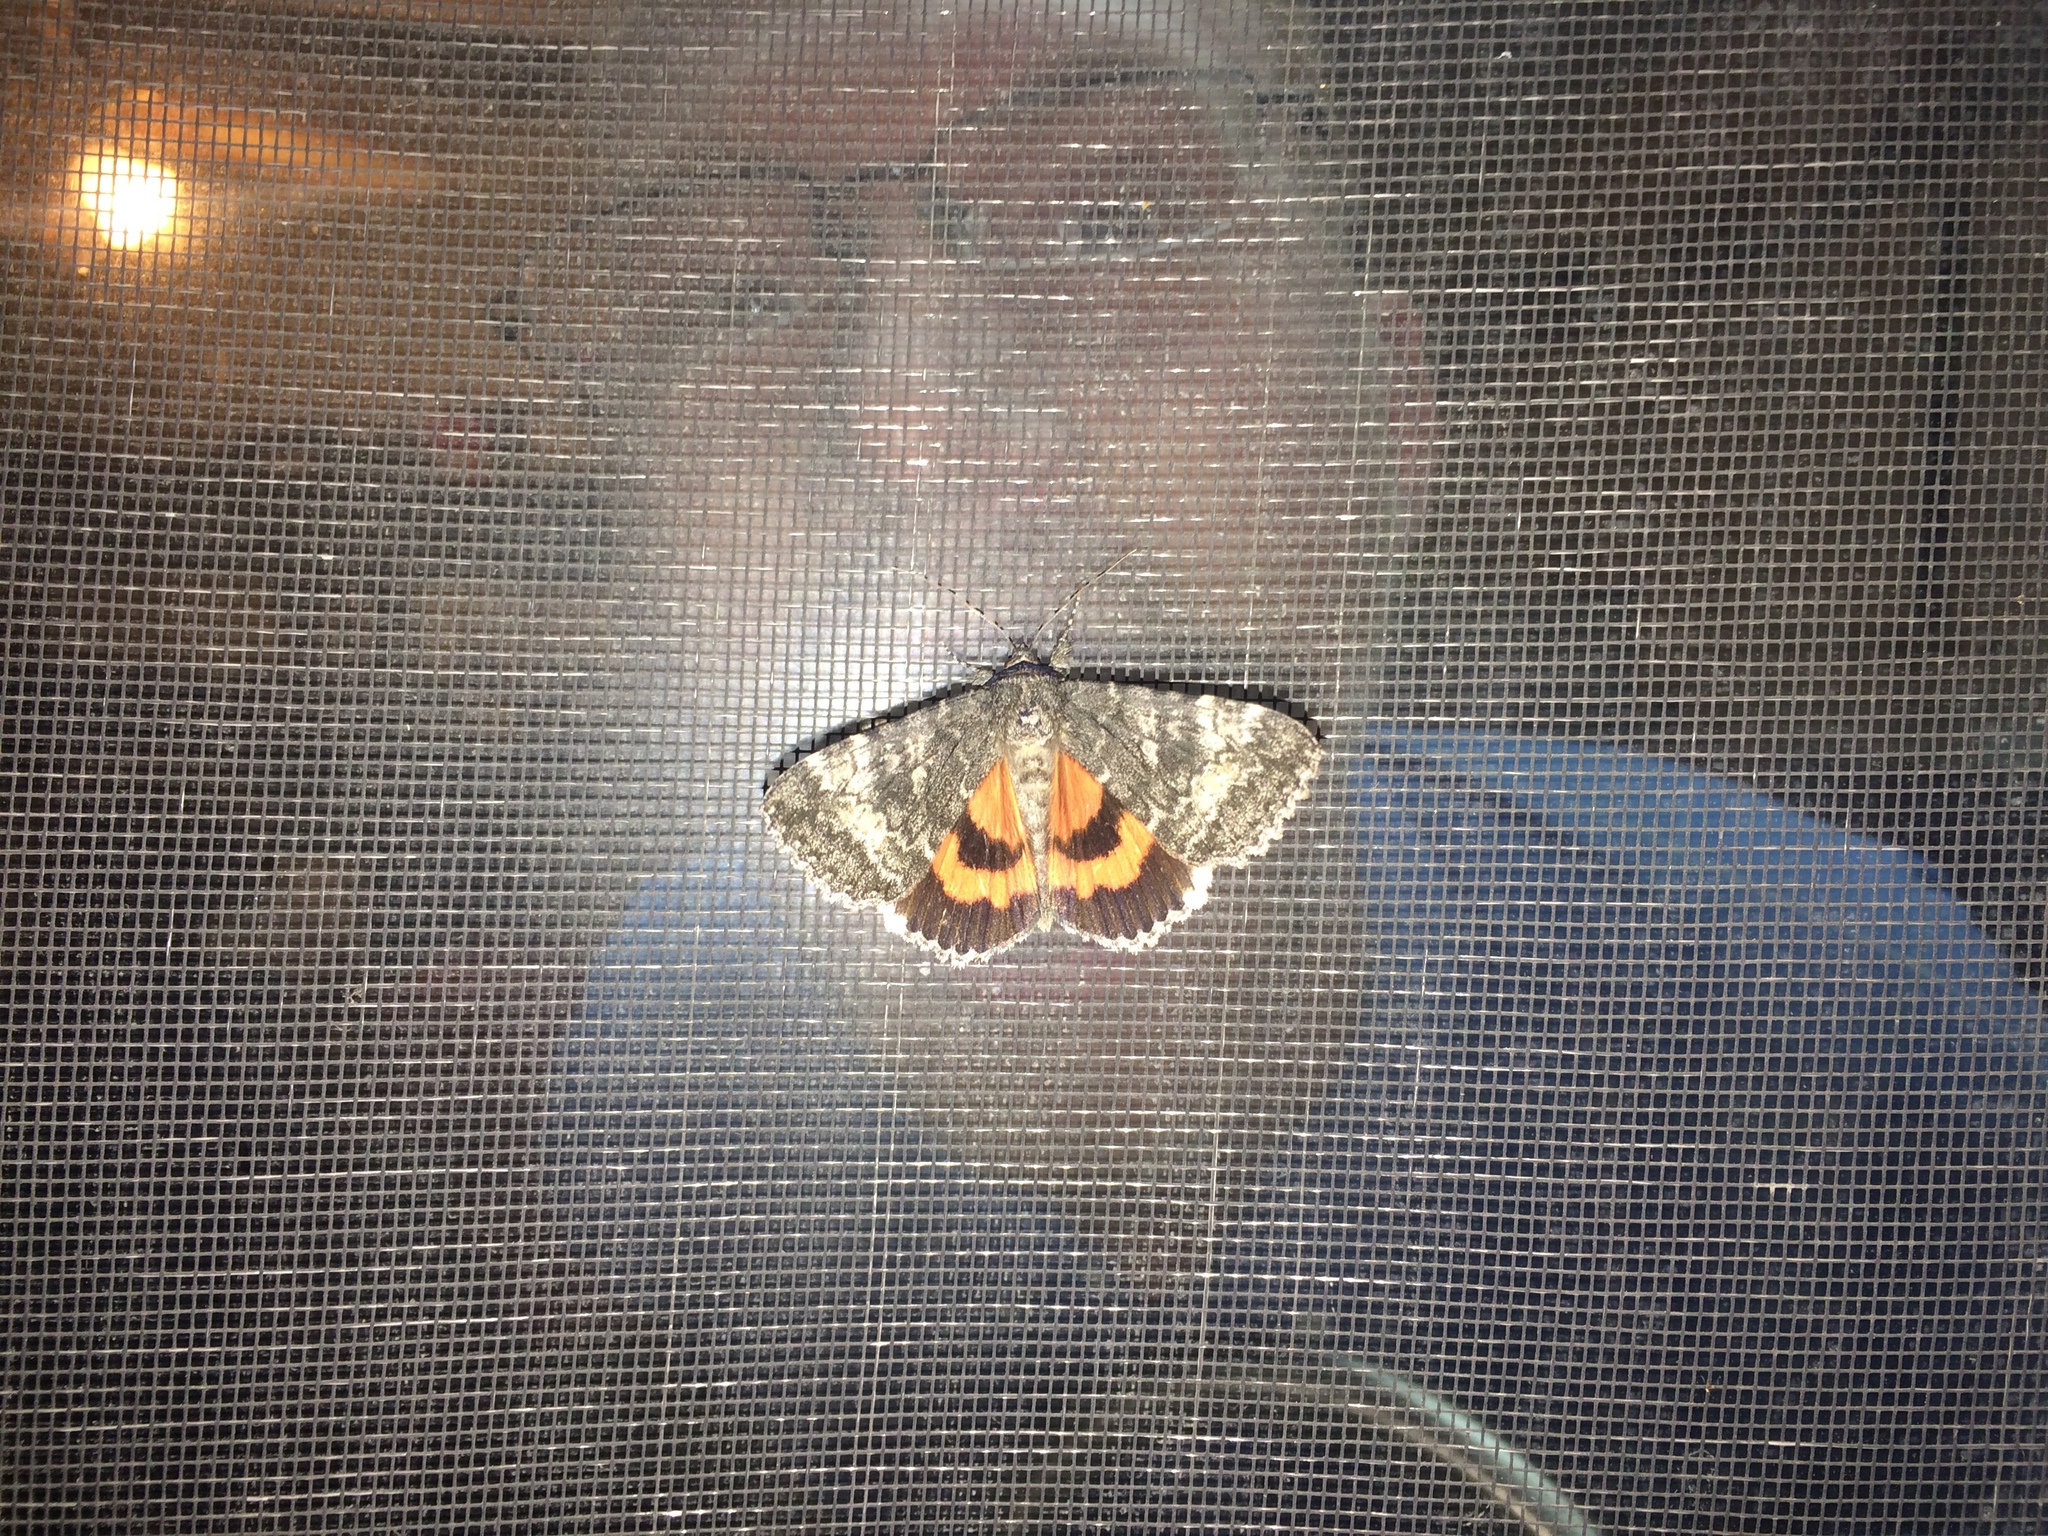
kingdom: Animalia
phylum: Arthropoda
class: Insecta
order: Lepidoptera
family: Erebidae
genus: Catocala
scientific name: Catocala briseis
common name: Briseis underwing
